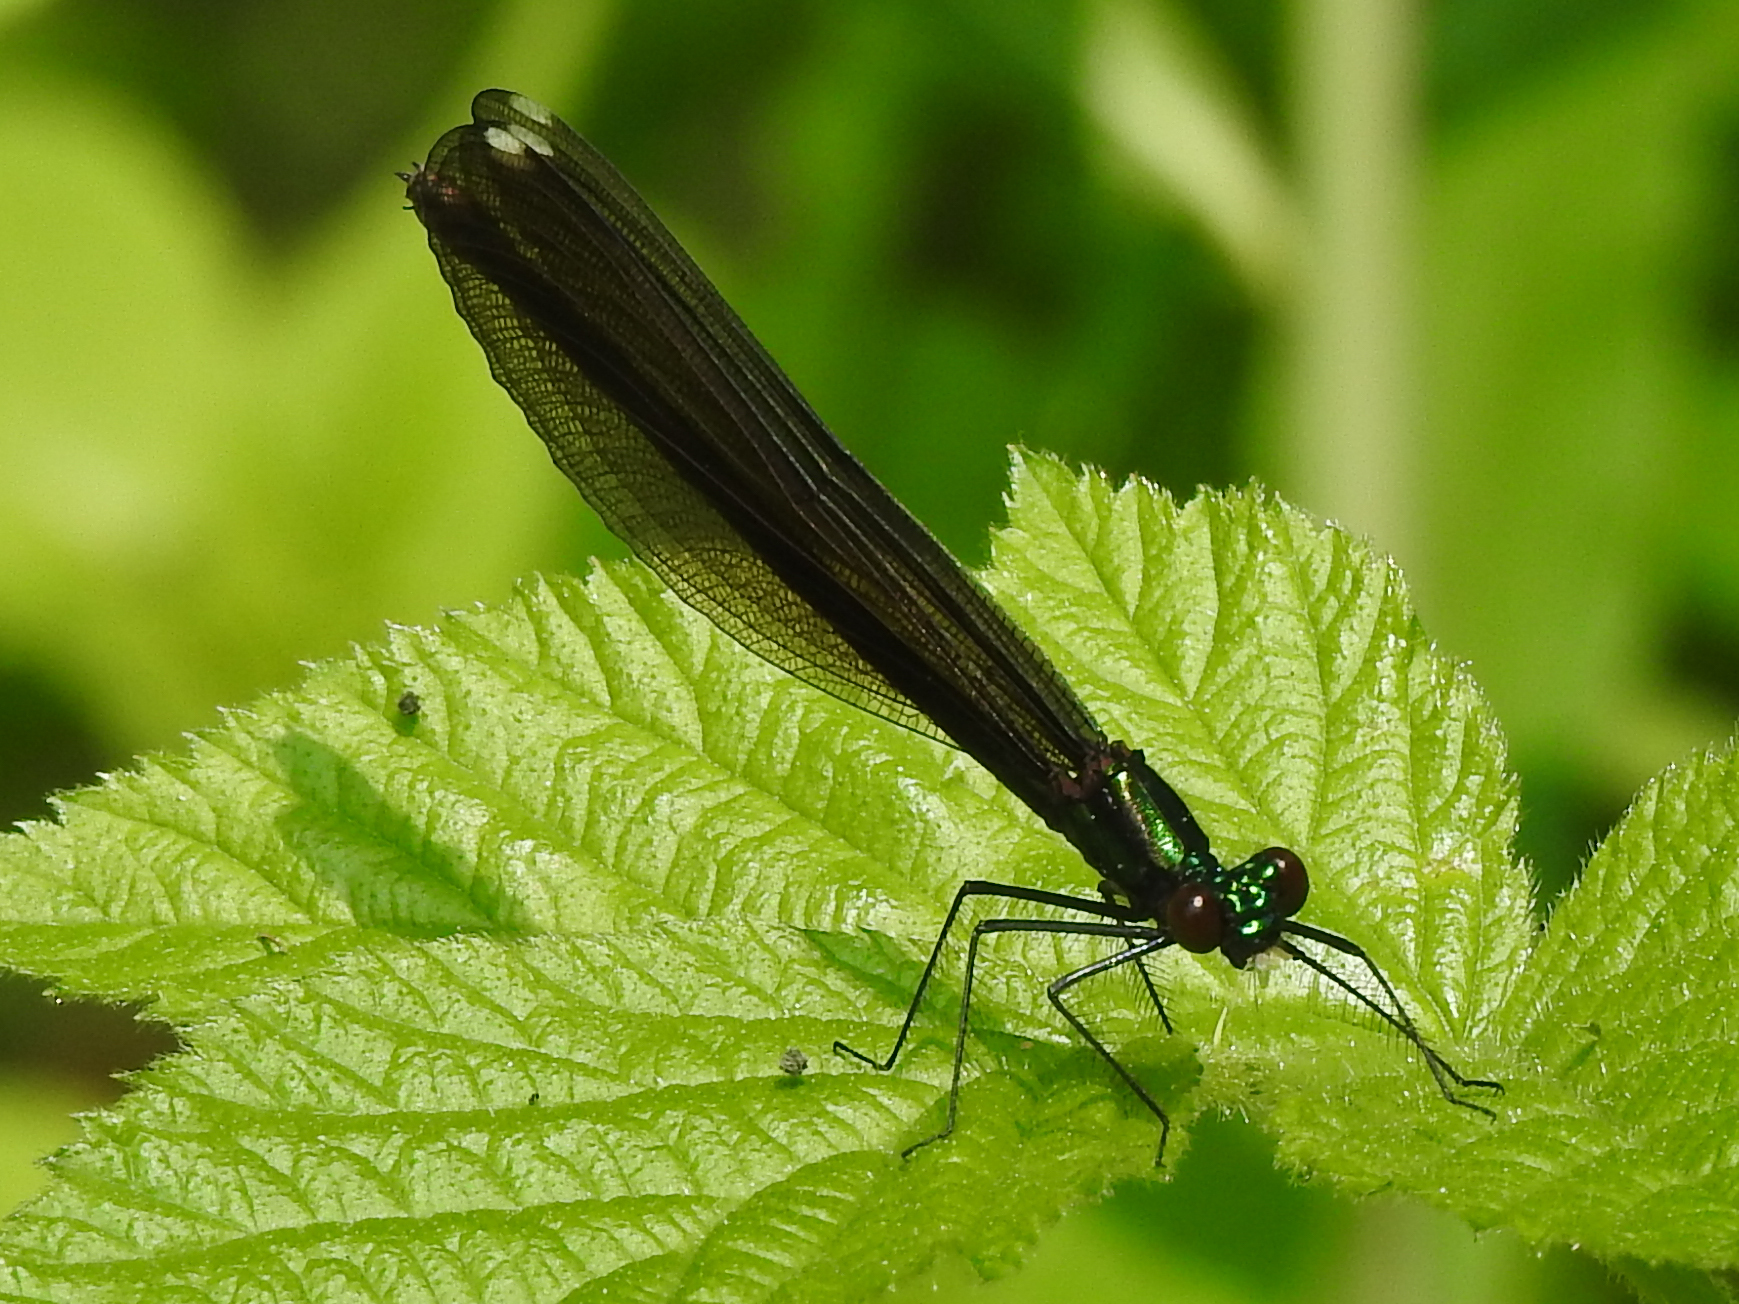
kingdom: Animalia
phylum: Arthropoda
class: Insecta
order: Odonata
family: Calopterygidae
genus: Calopteryx
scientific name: Calopteryx maculata
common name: Ebony jewelwing
